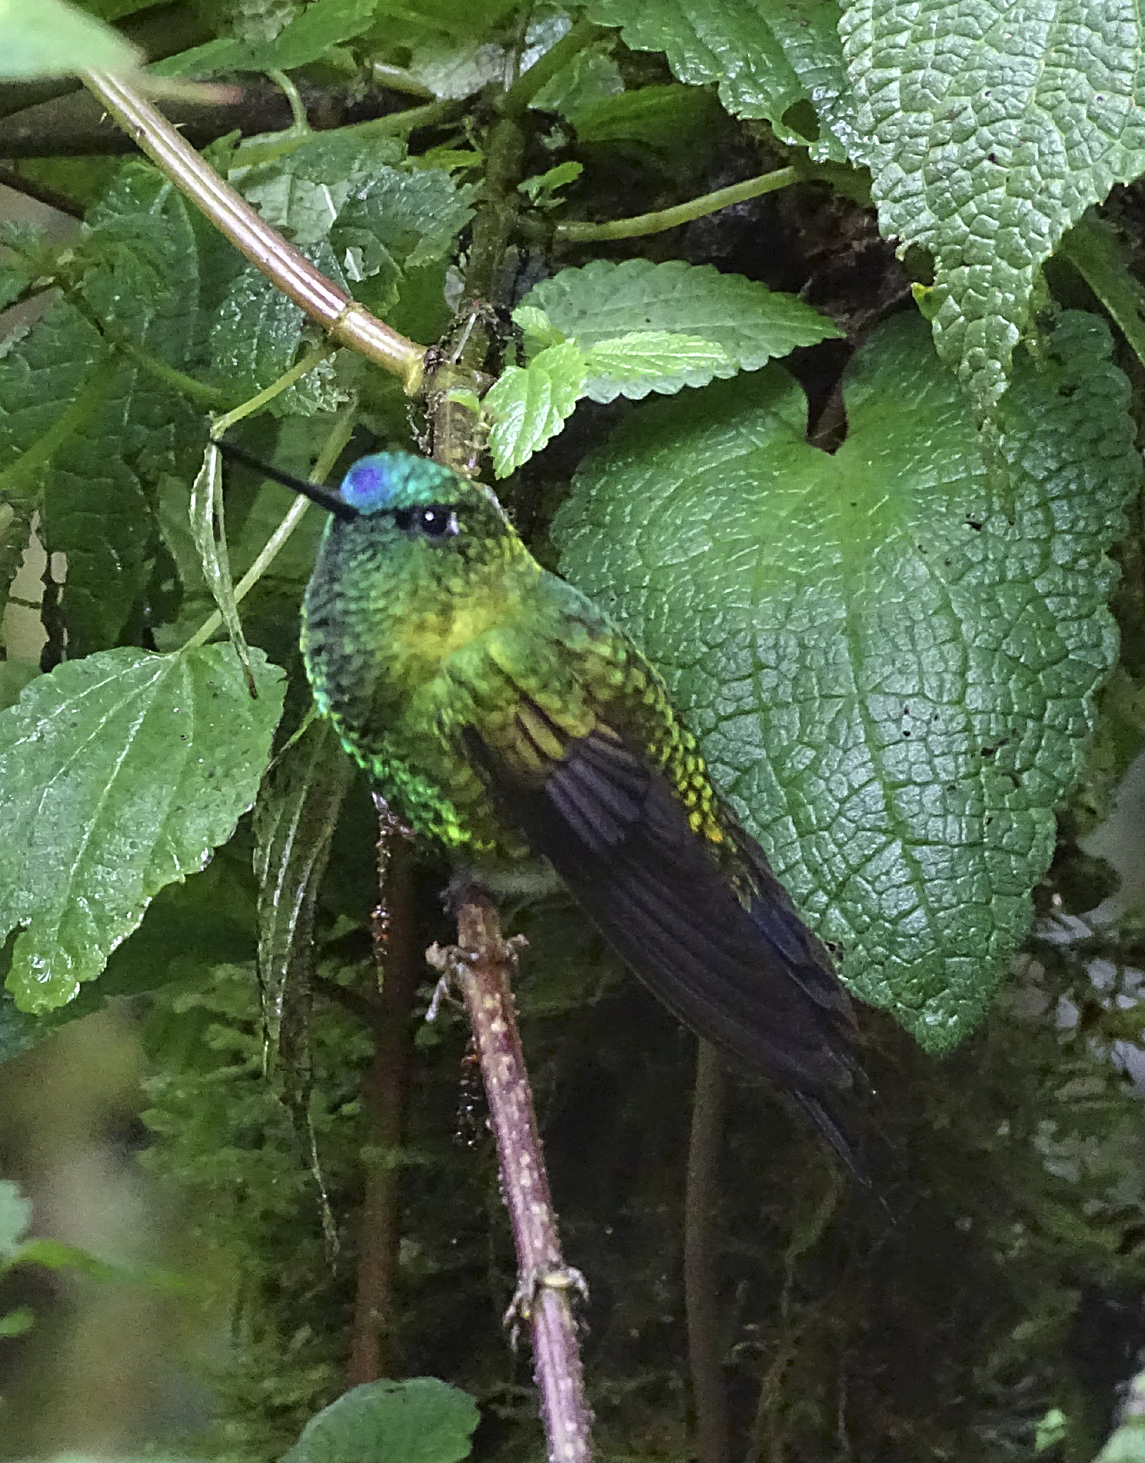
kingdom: Animalia
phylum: Chordata
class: Aves
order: Apodiformes
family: Trochilidae
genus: Eriocnemis
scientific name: Eriocnemis luciani
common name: Sapphire-vented puffleg
